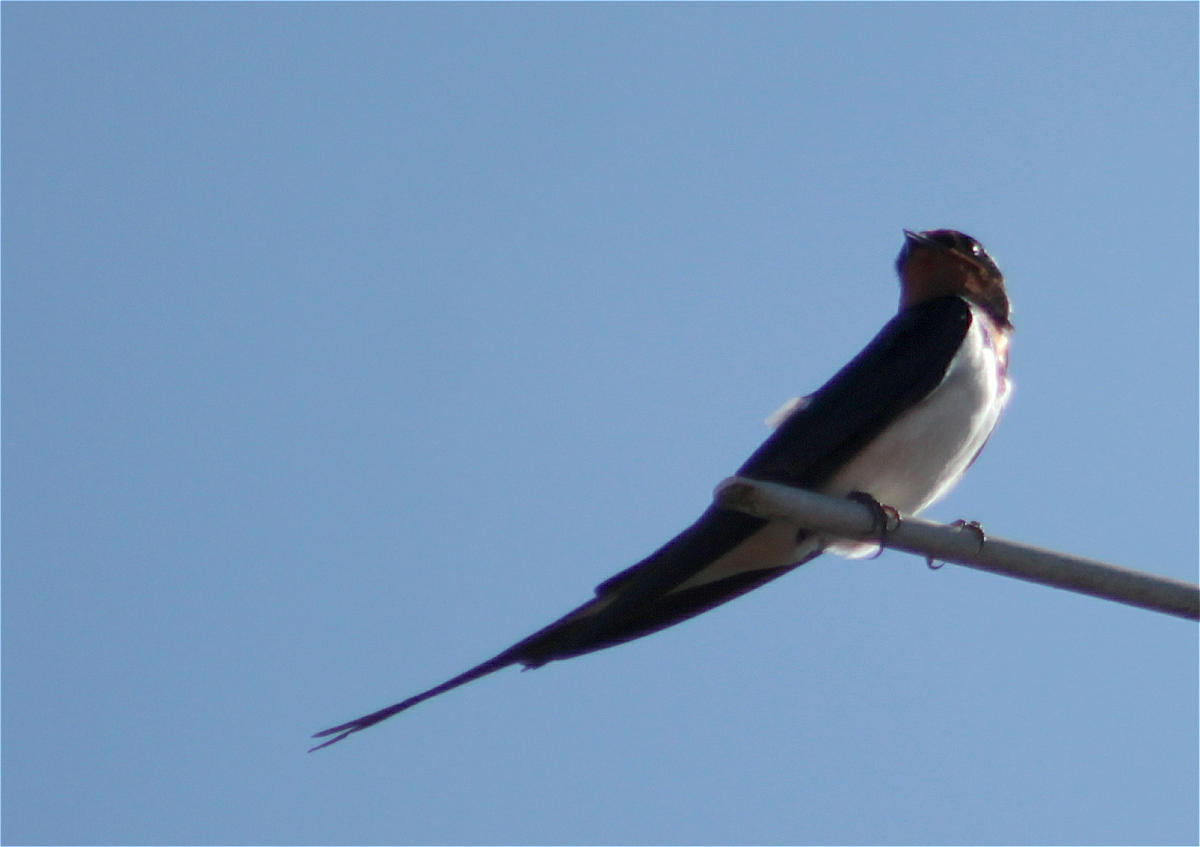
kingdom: Animalia
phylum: Chordata
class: Aves
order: Passeriformes
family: Hirundinidae
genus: Hirundo
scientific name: Hirundo rustica
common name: Barn swallow
